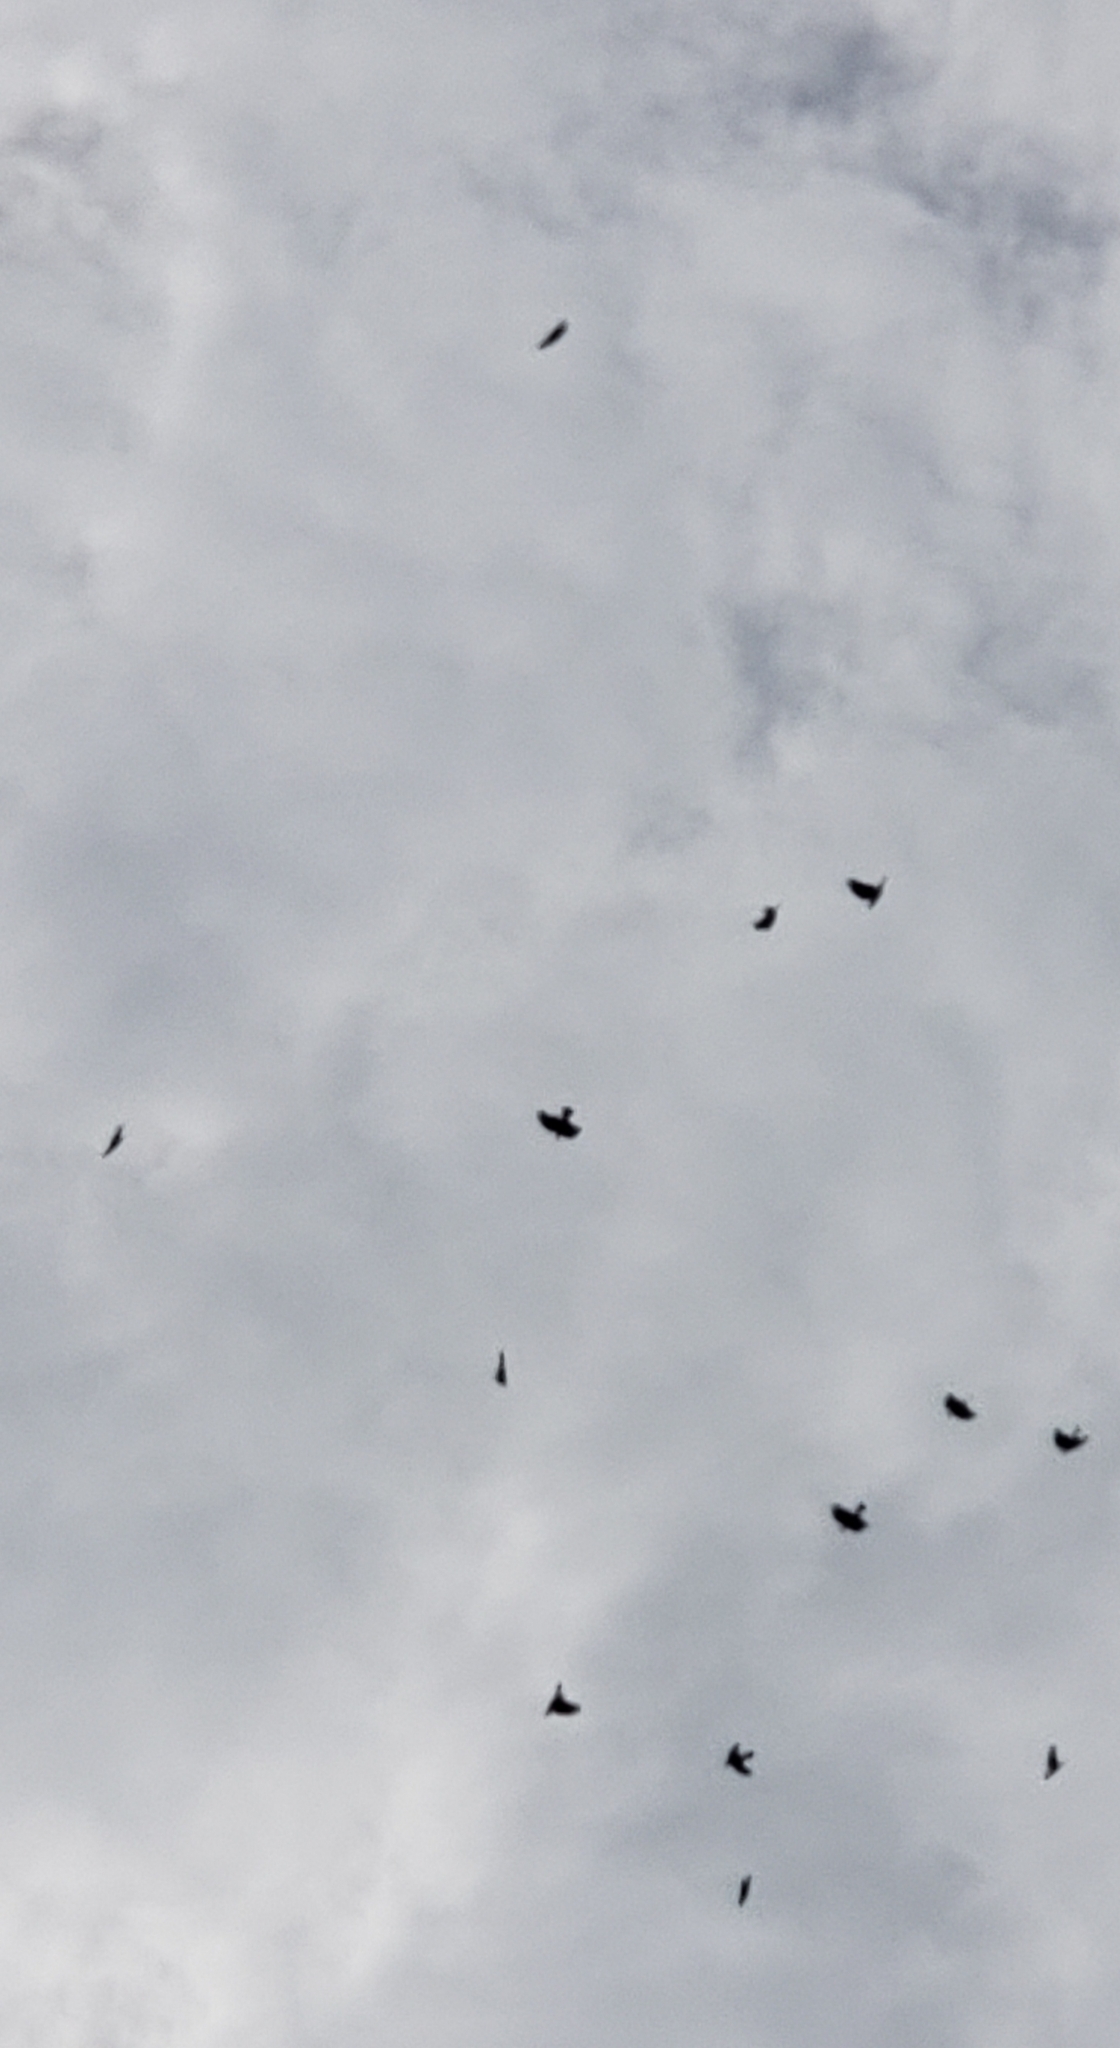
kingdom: Animalia
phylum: Chordata
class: Aves
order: Passeriformes
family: Corvidae
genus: Corvus
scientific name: Corvus
